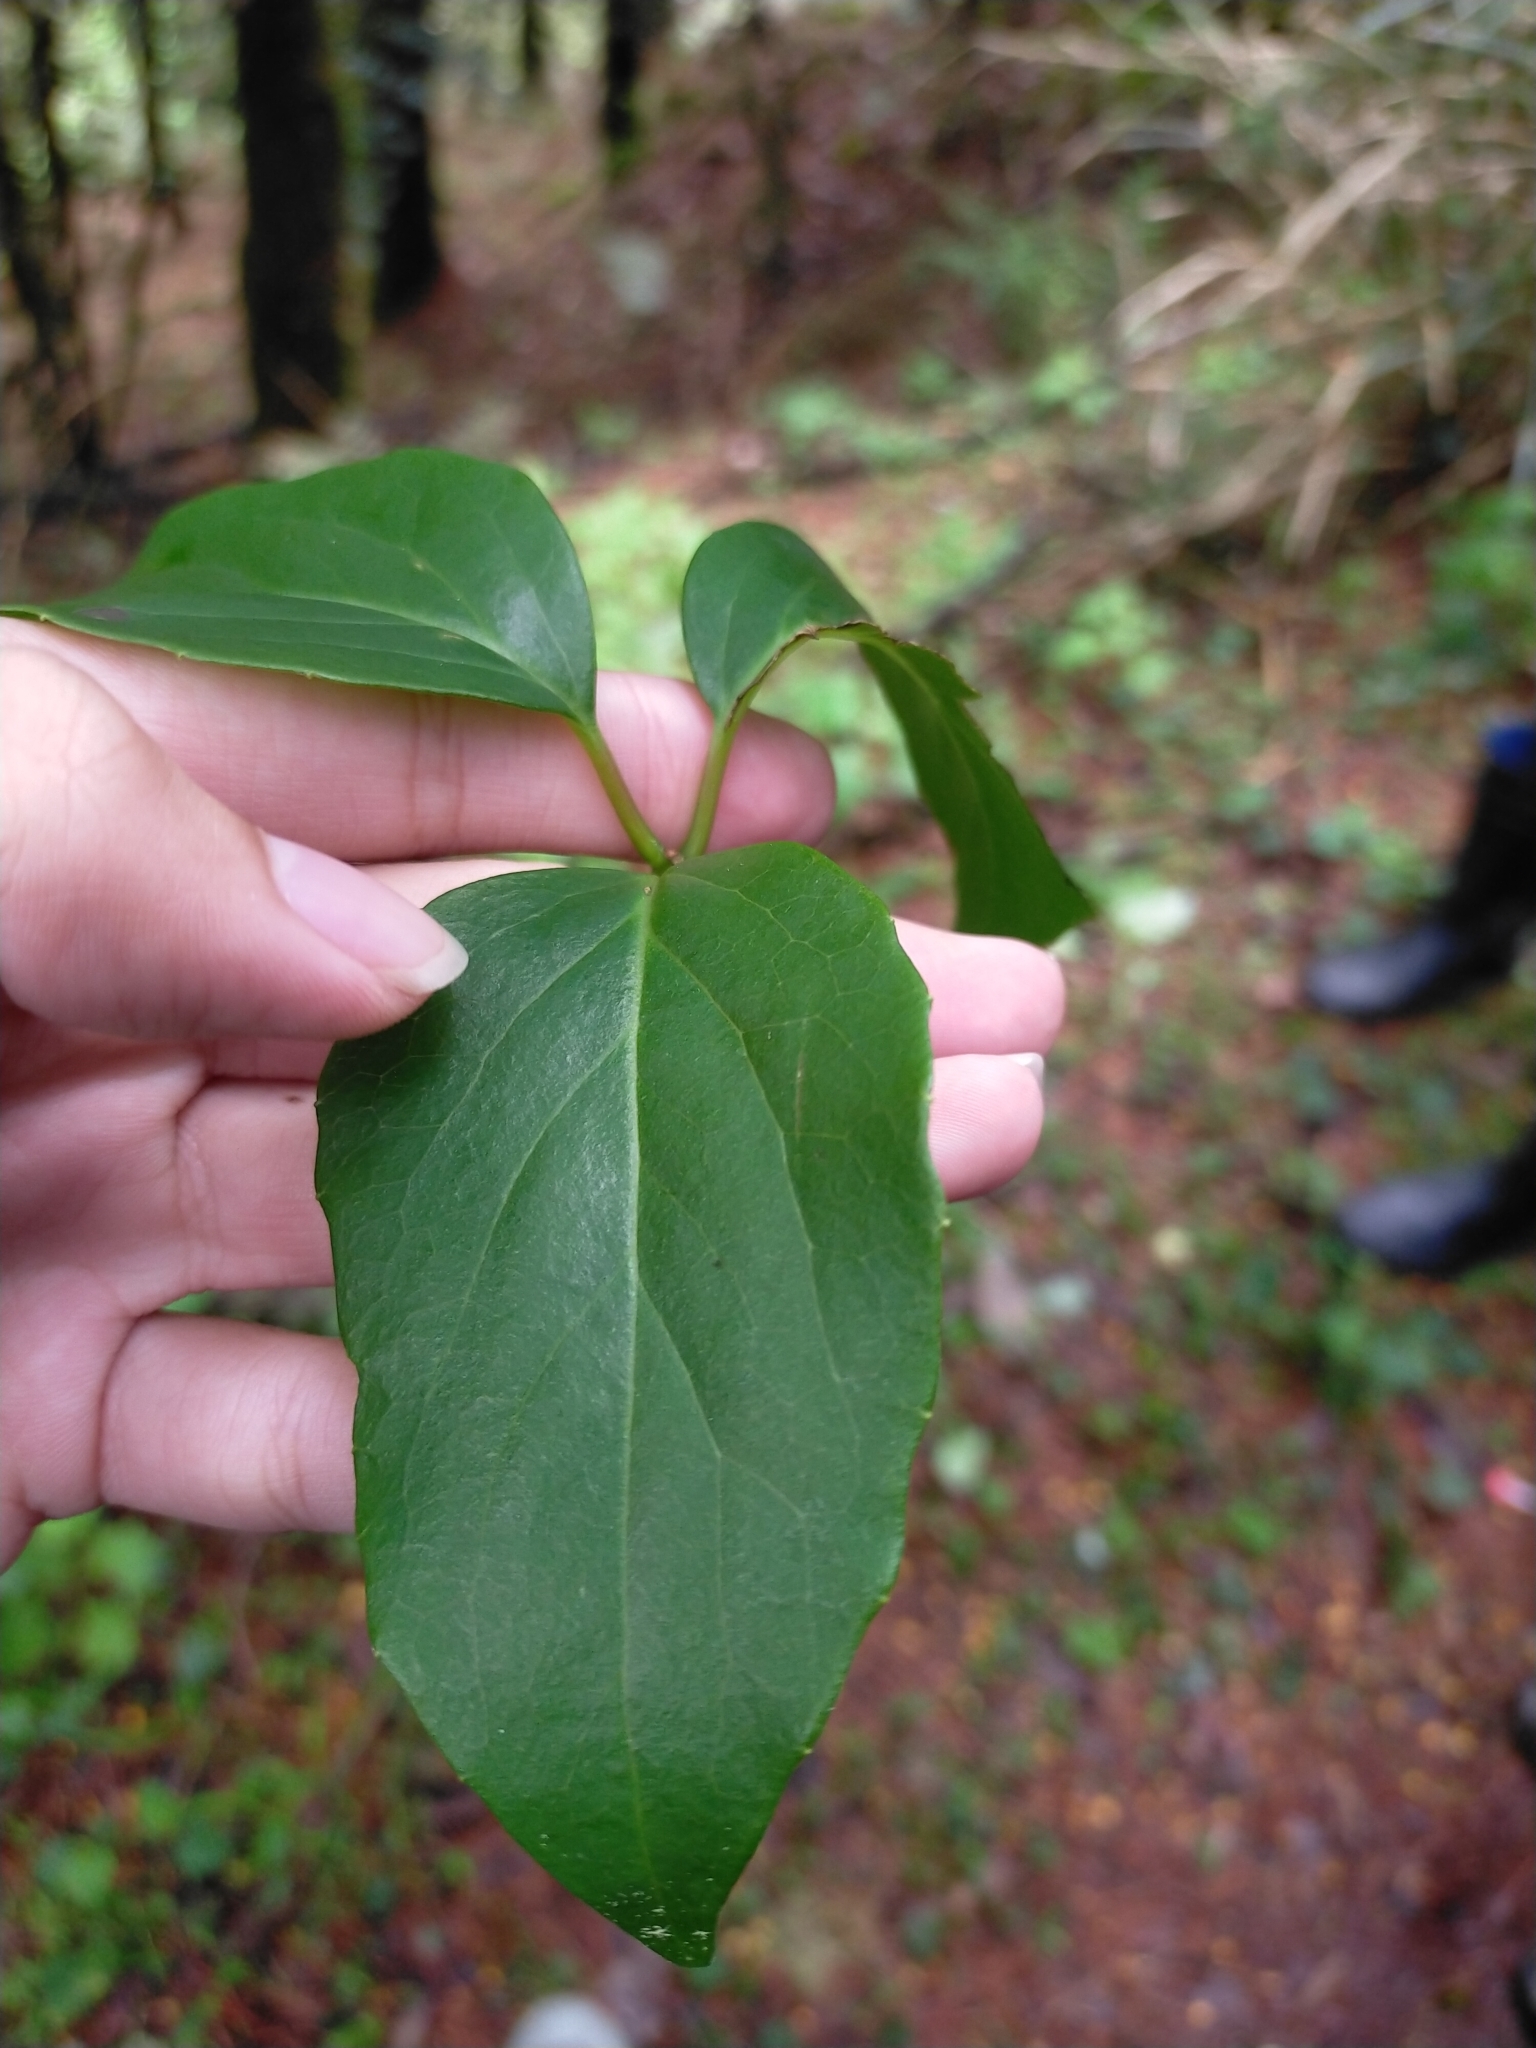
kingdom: Plantae
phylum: Tracheophyta
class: Magnoliopsida
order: Austrobaileyales
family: Schisandraceae
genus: Schisandra
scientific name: Schisandra arisanensis
